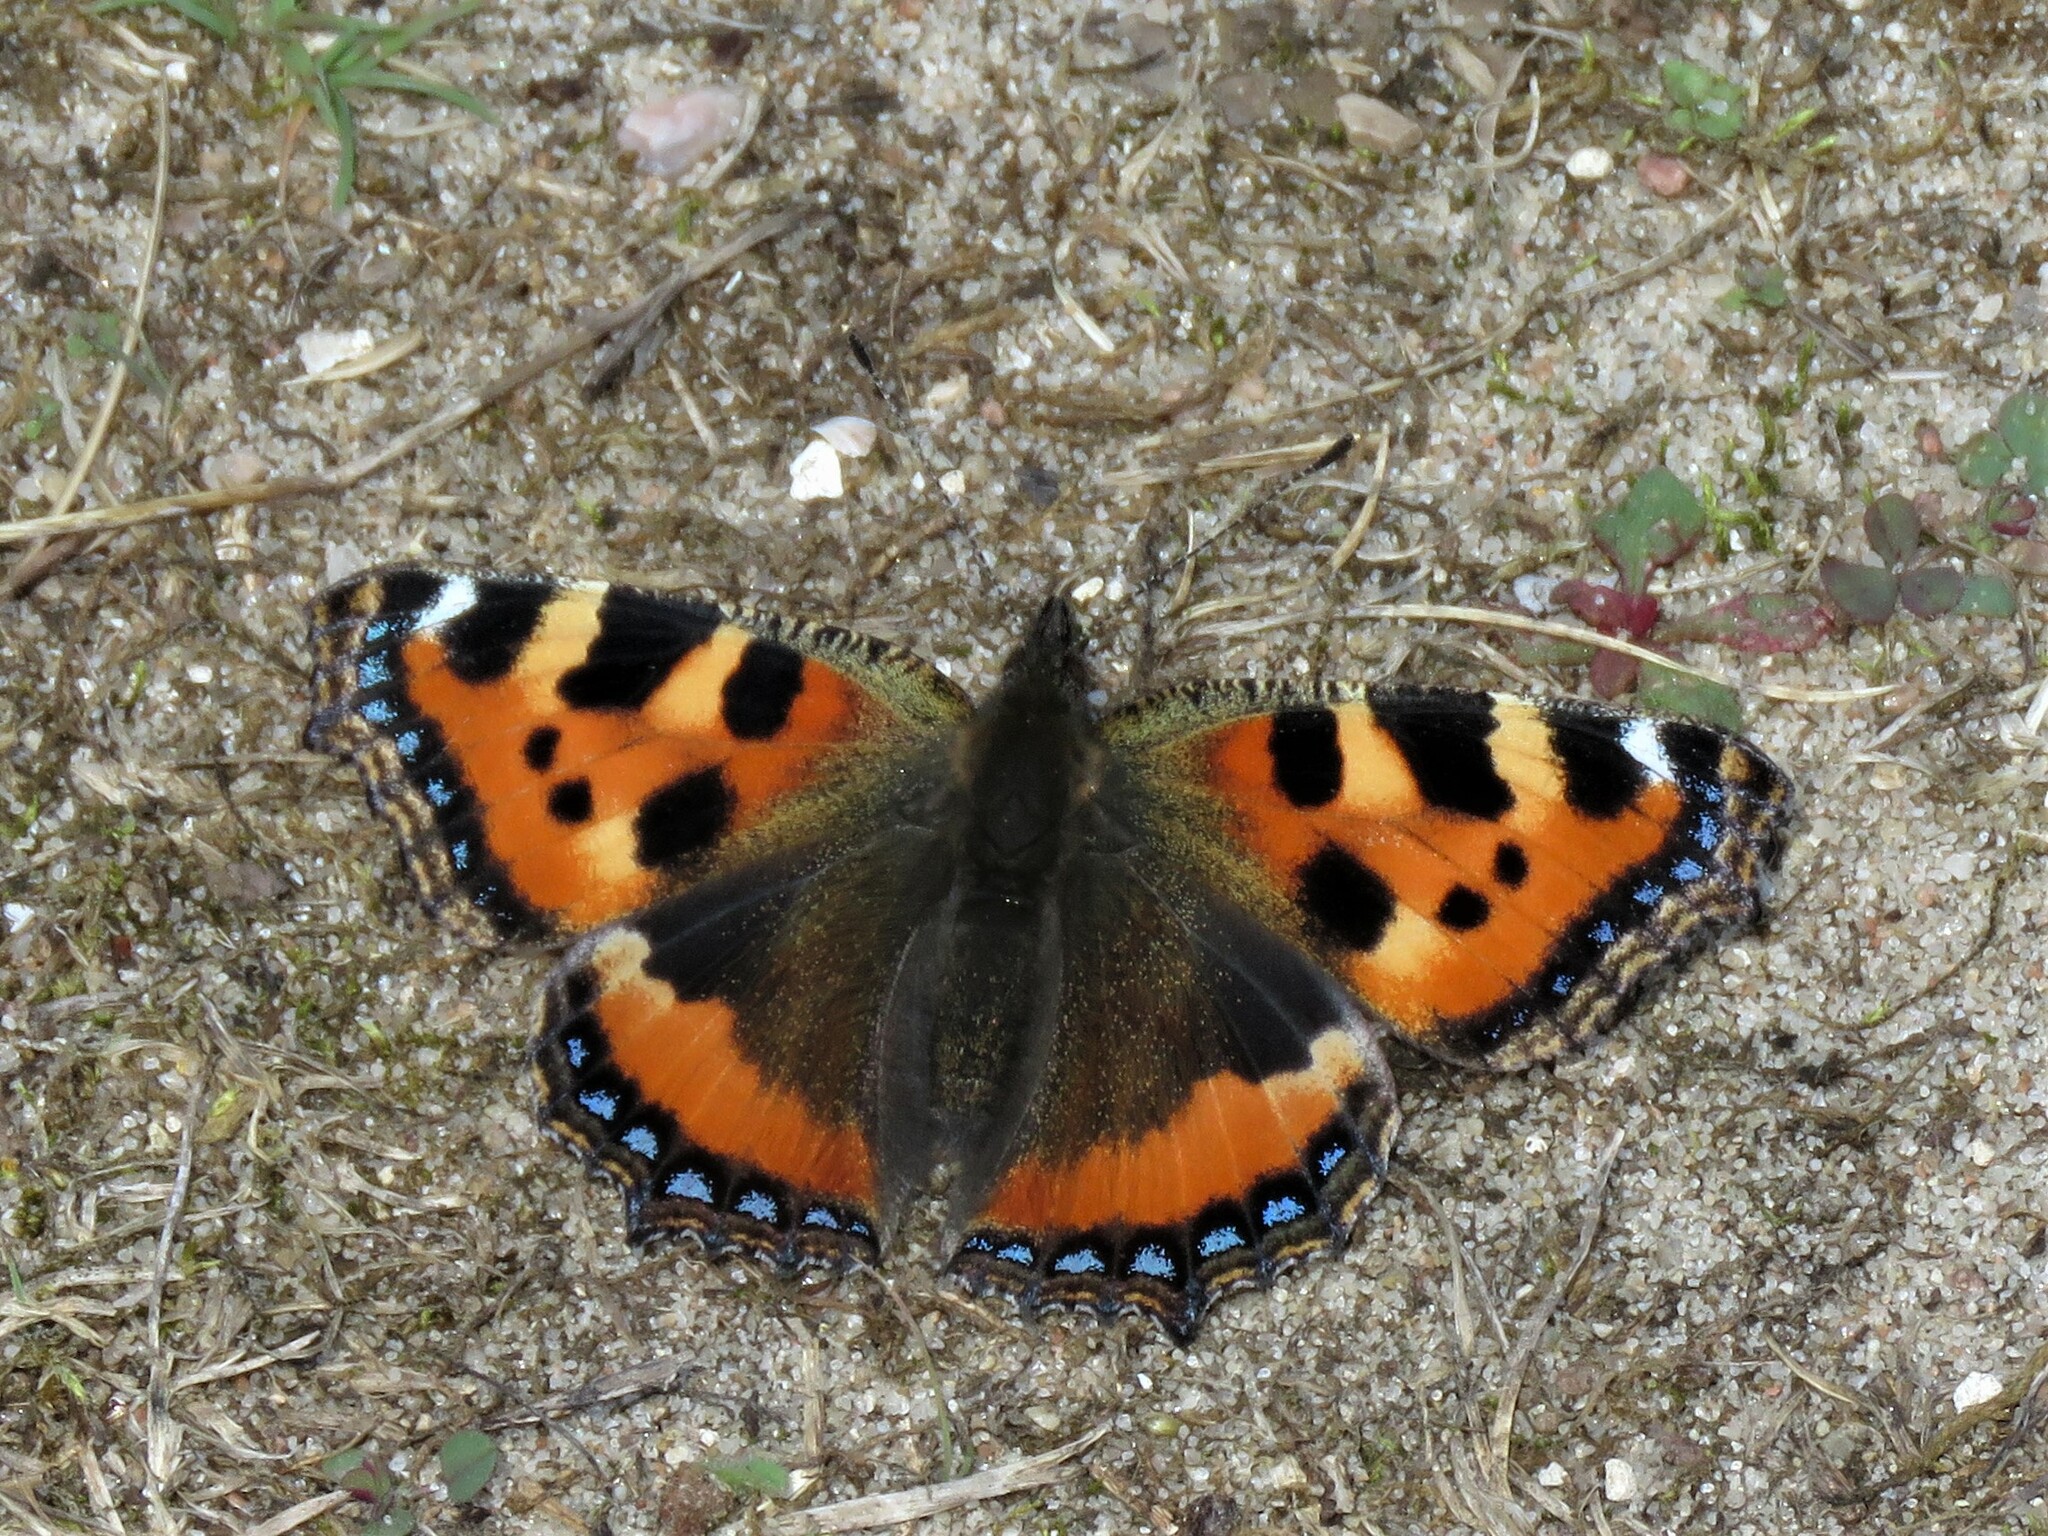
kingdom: Animalia
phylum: Arthropoda
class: Insecta
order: Lepidoptera
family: Nymphalidae
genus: Aglais
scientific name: Aglais urticae
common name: Small tortoiseshell
